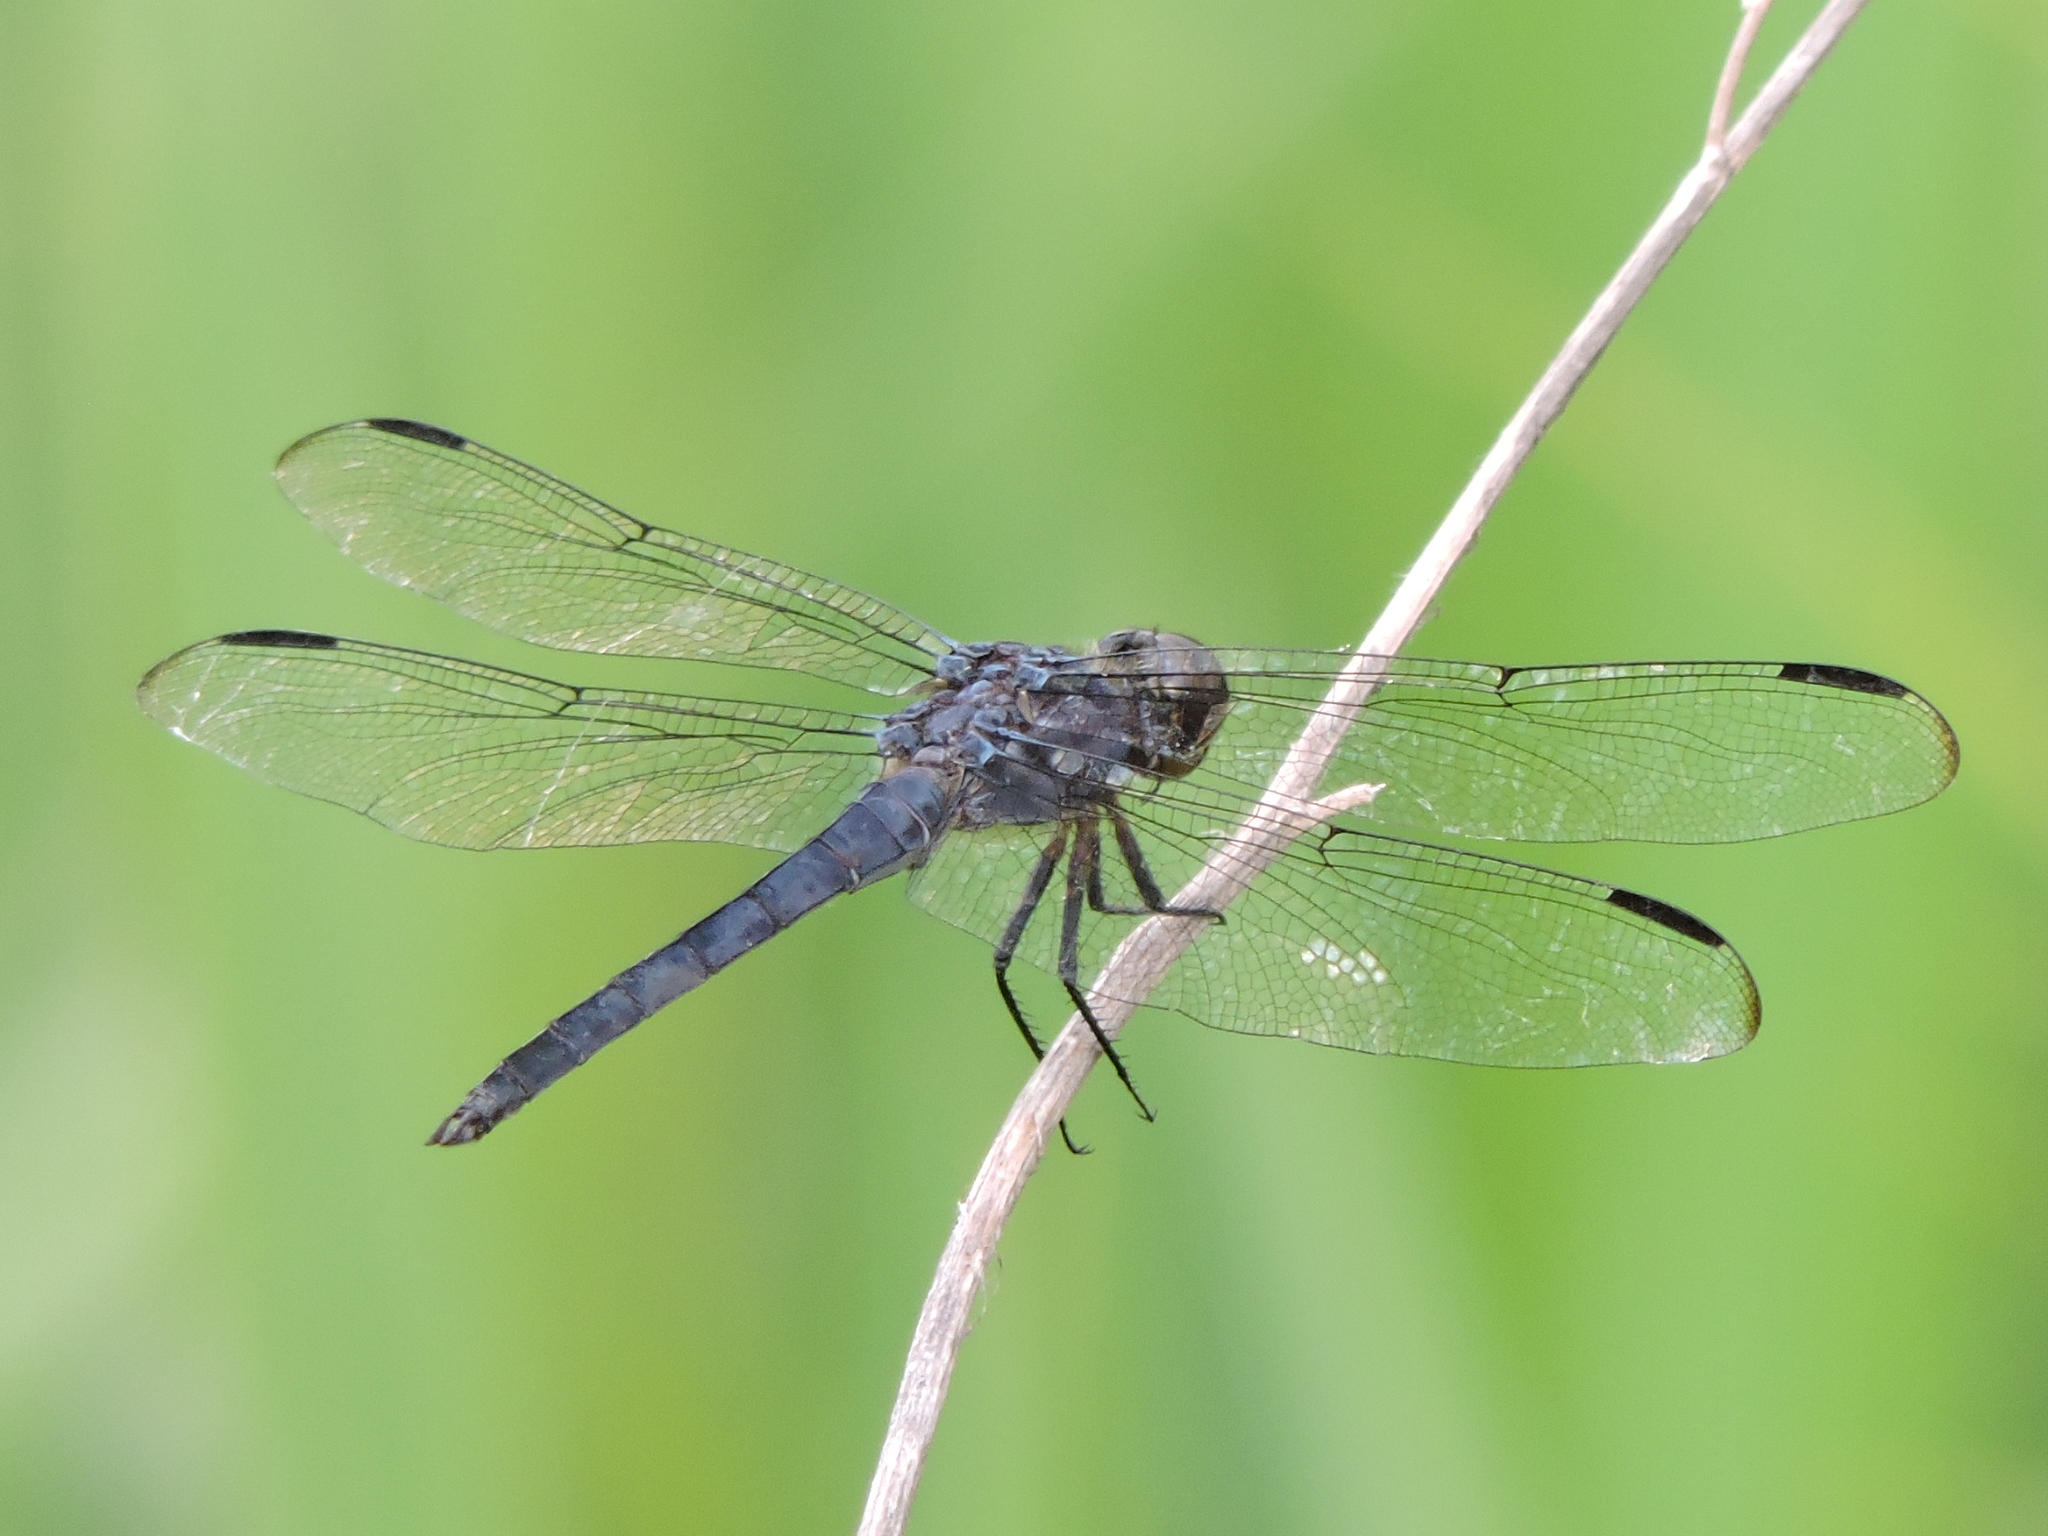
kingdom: Animalia
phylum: Arthropoda
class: Insecta
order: Odonata
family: Libellulidae
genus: Libellula
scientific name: Libellula incesta
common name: Slaty skimmer
